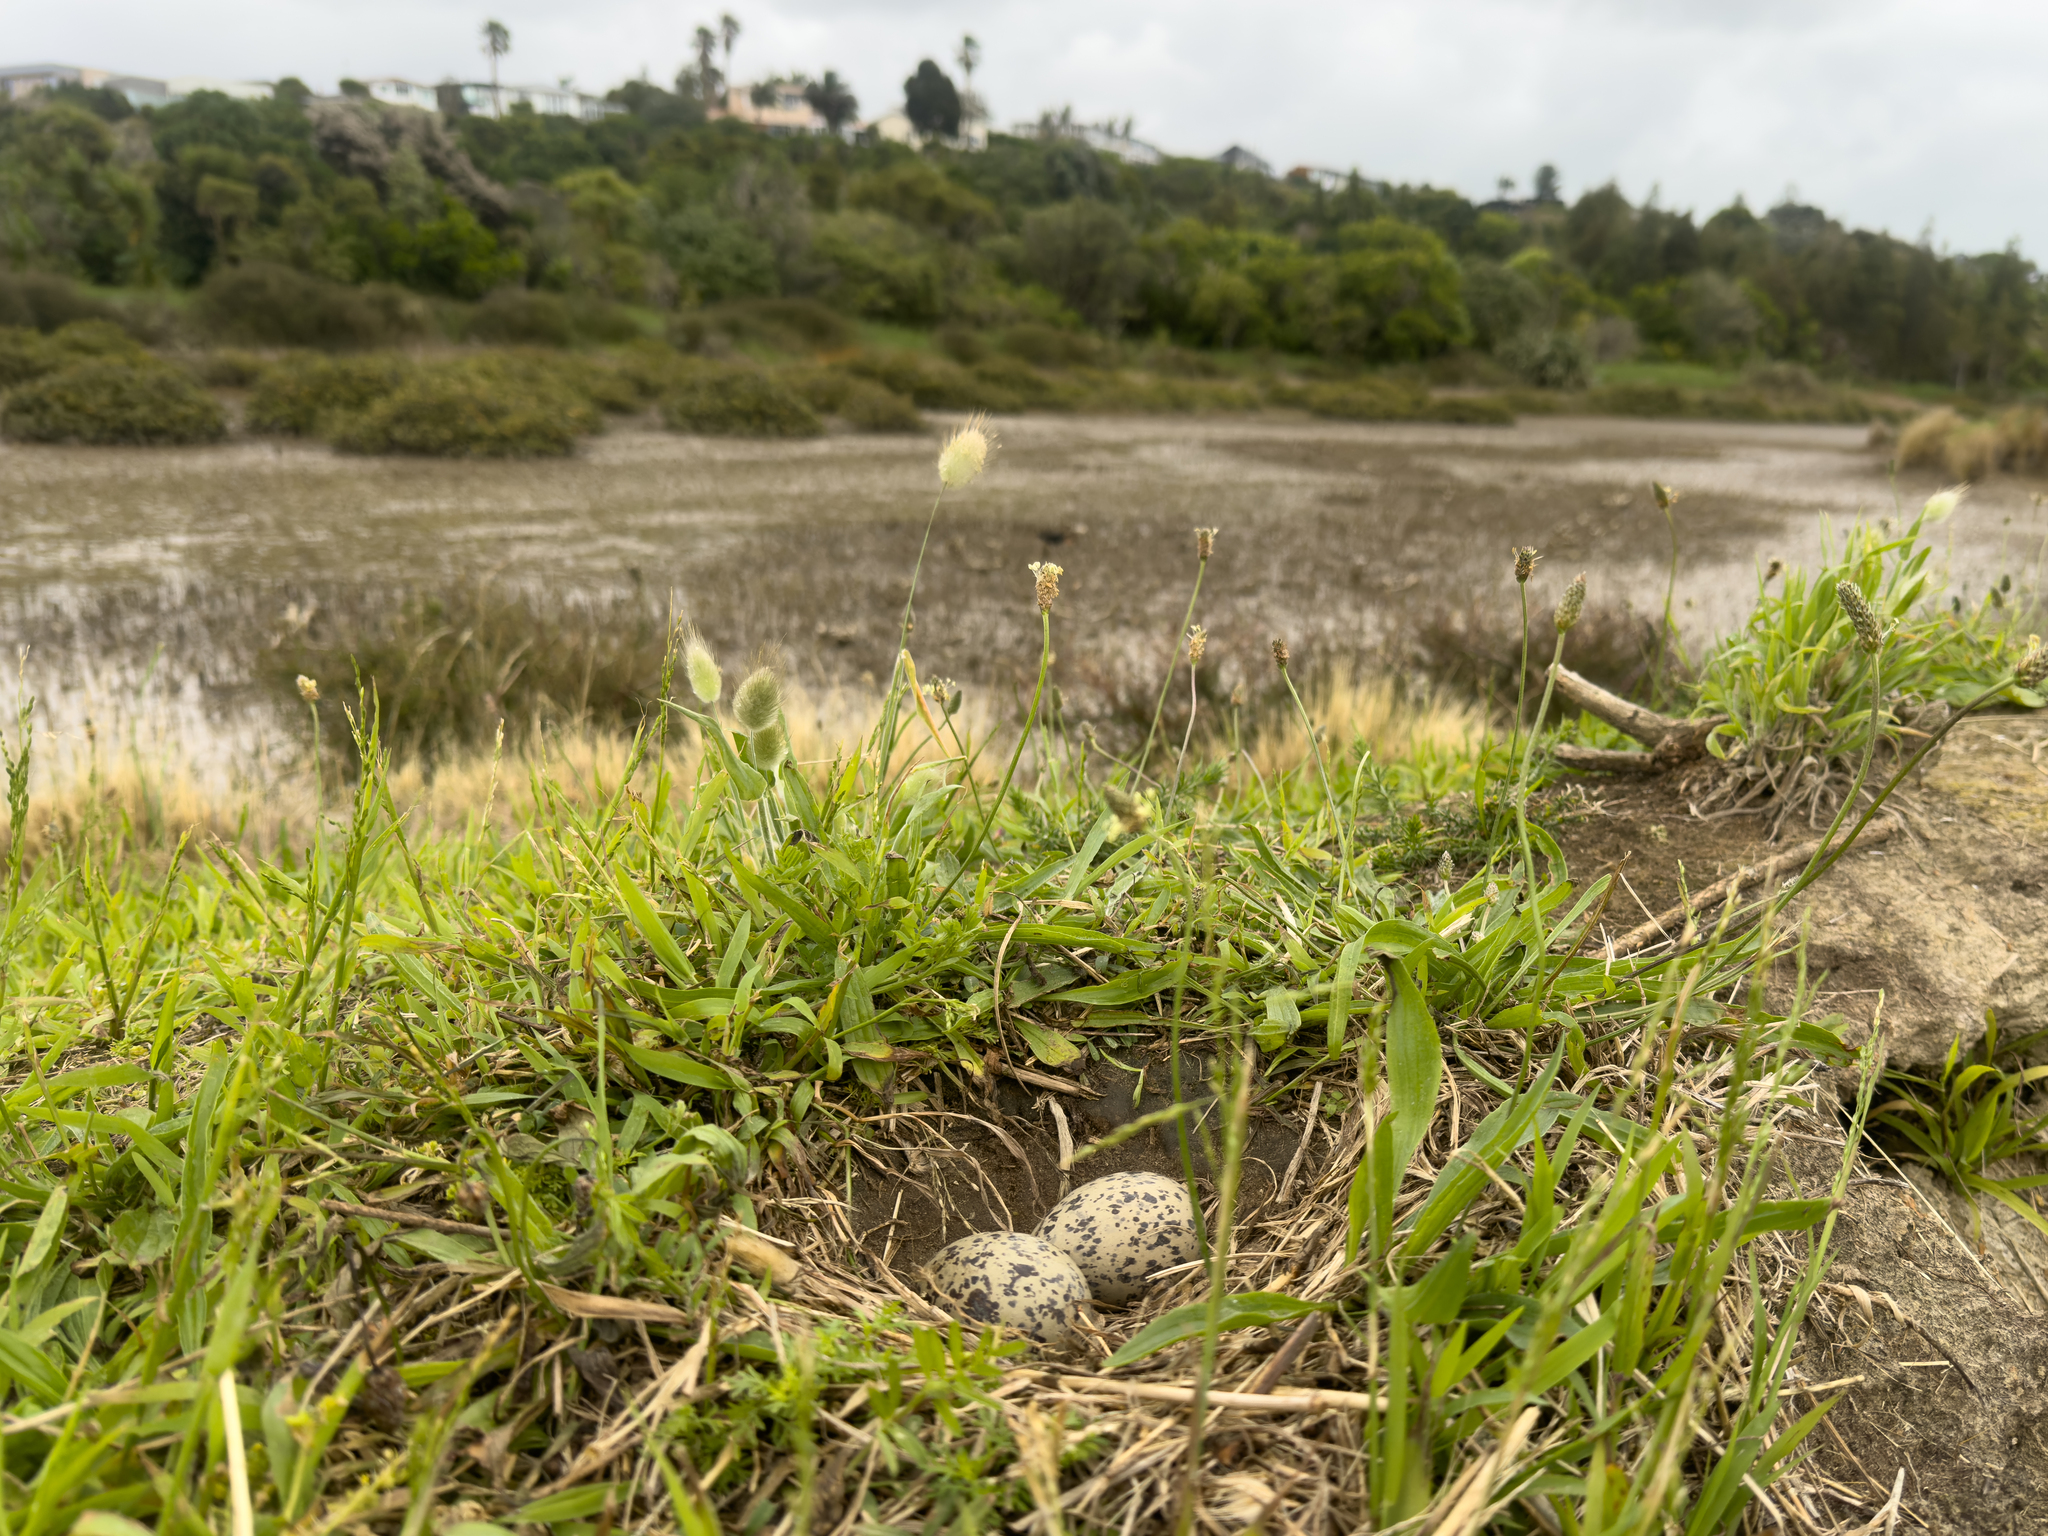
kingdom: Animalia
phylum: Chordata
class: Aves
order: Charadriiformes
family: Haematopodidae
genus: Haematopus
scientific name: Haematopus unicolor
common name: Variable oystercatcher
